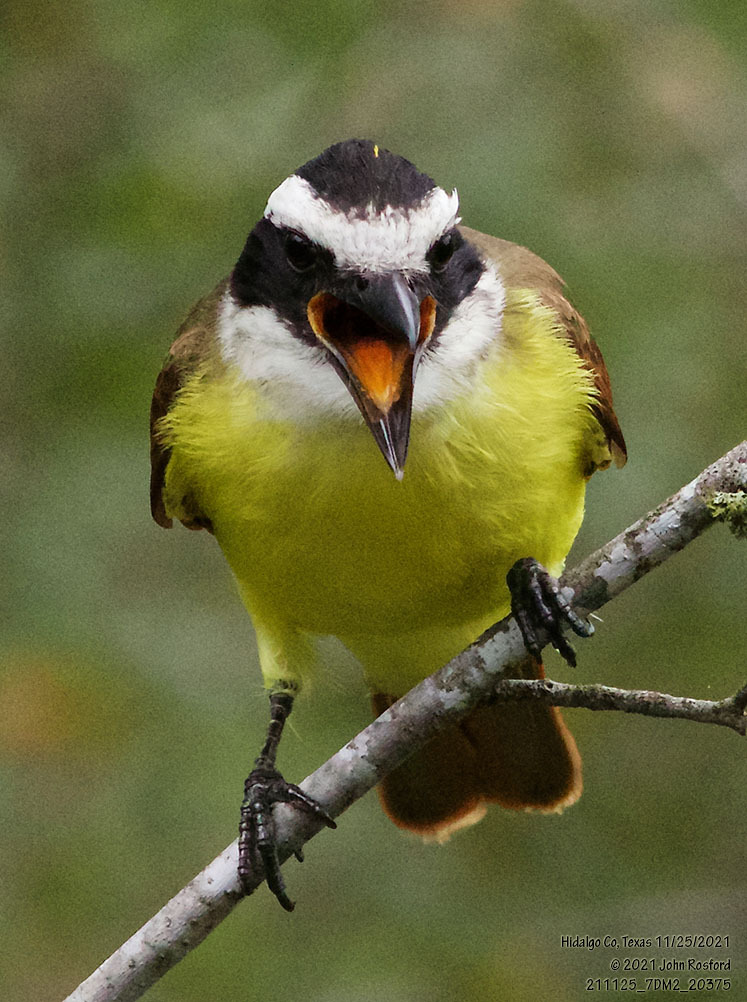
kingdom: Animalia
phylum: Chordata
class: Aves
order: Passeriformes
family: Tyrannidae
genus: Pitangus
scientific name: Pitangus sulphuratus
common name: Great kiskadee
